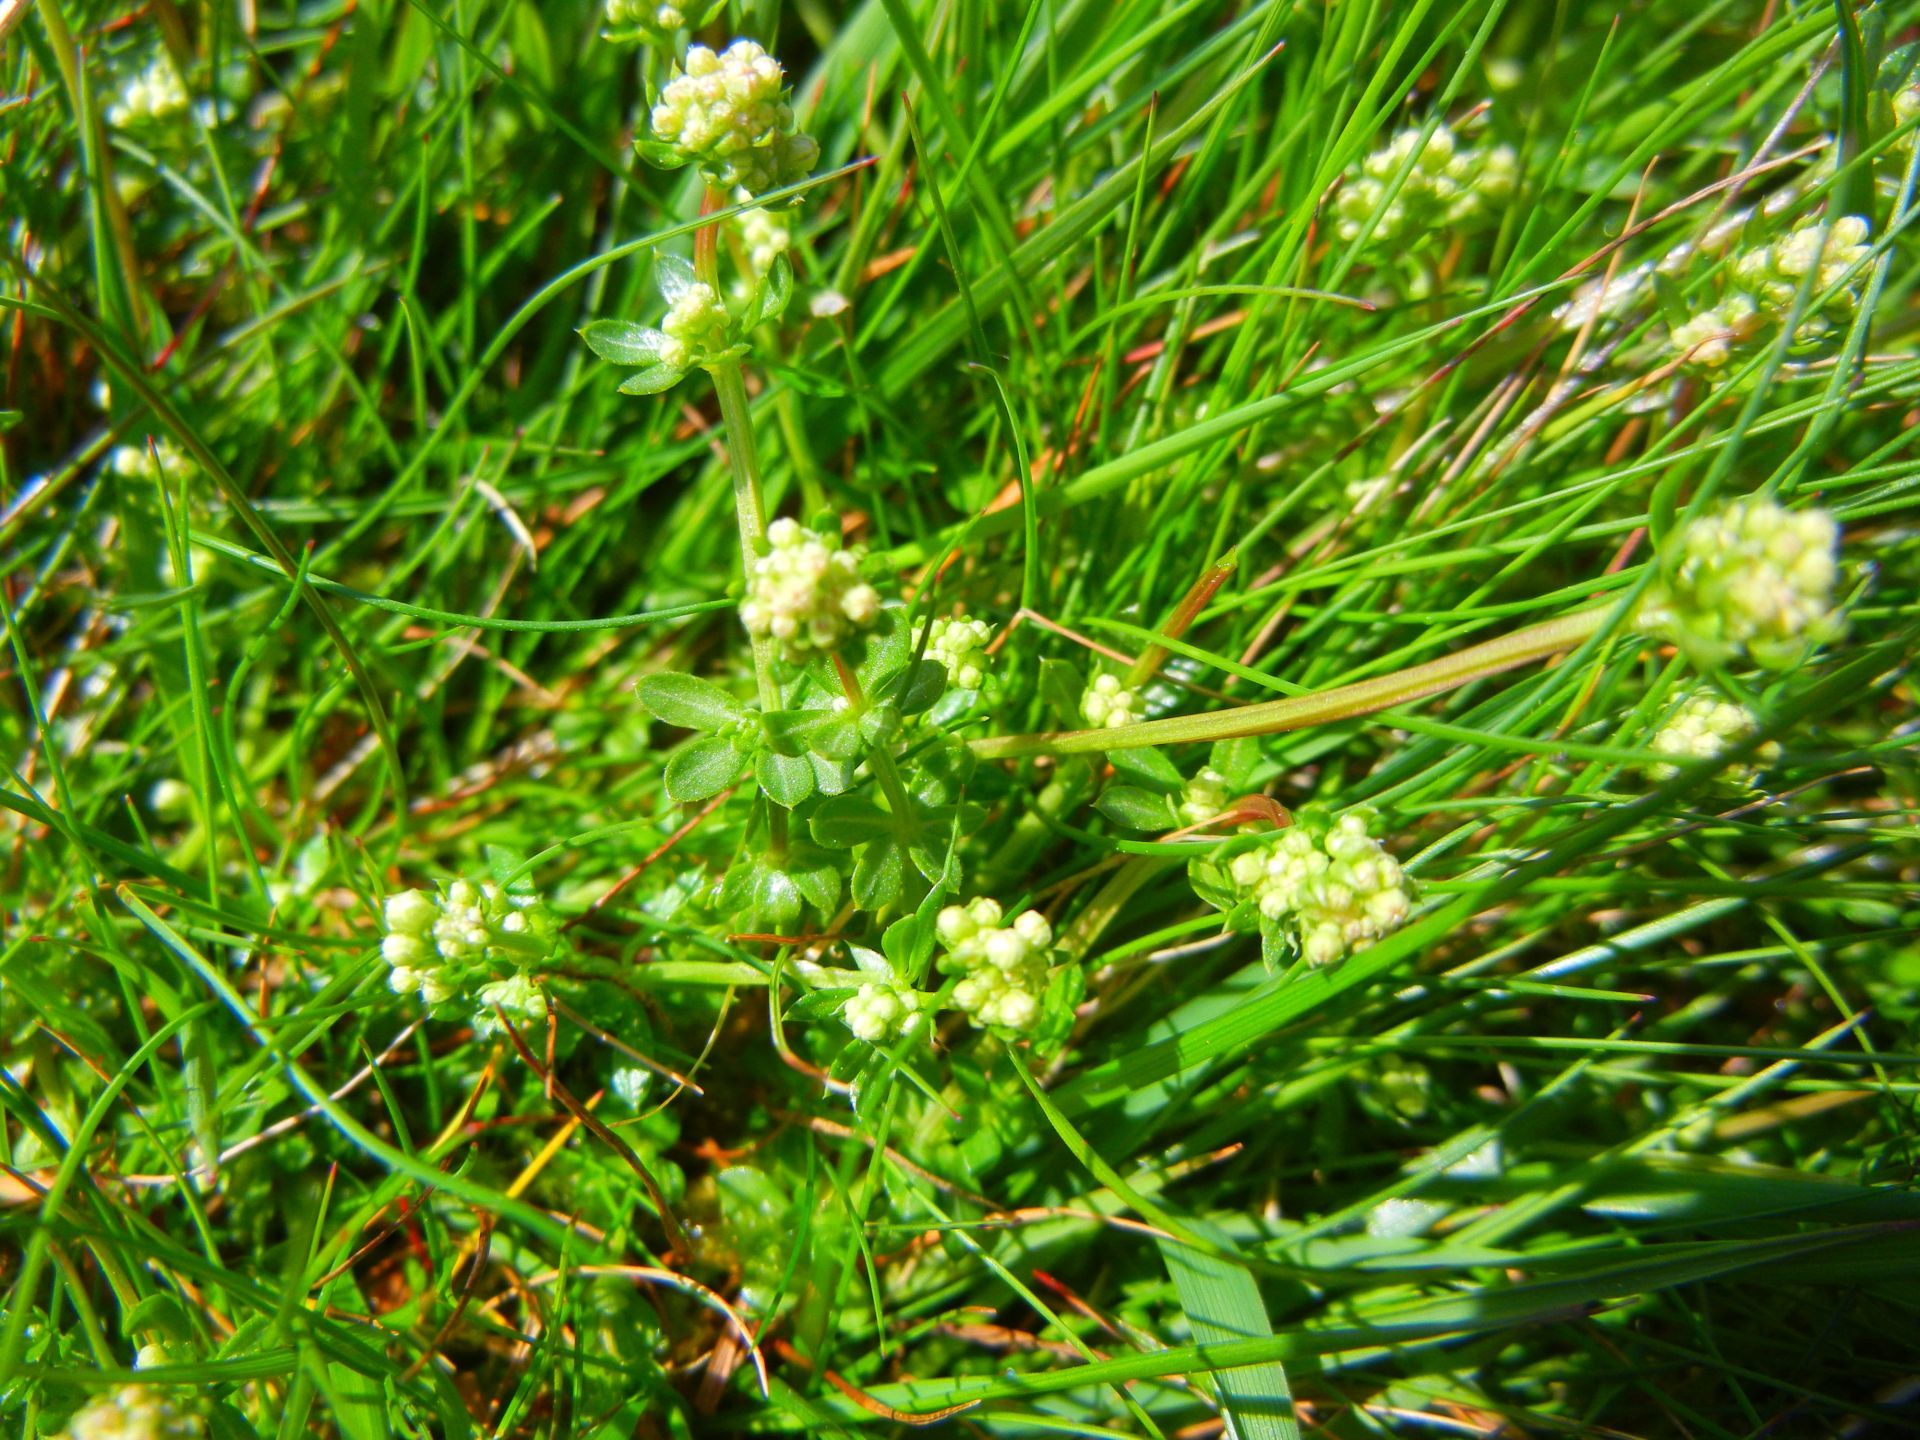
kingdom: Plantae
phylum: Tracheophyta
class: Magnoliopsida
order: Gentianales
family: Rubiaceae
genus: Galium
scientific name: Galium saxatile
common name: Heath bedstraw
